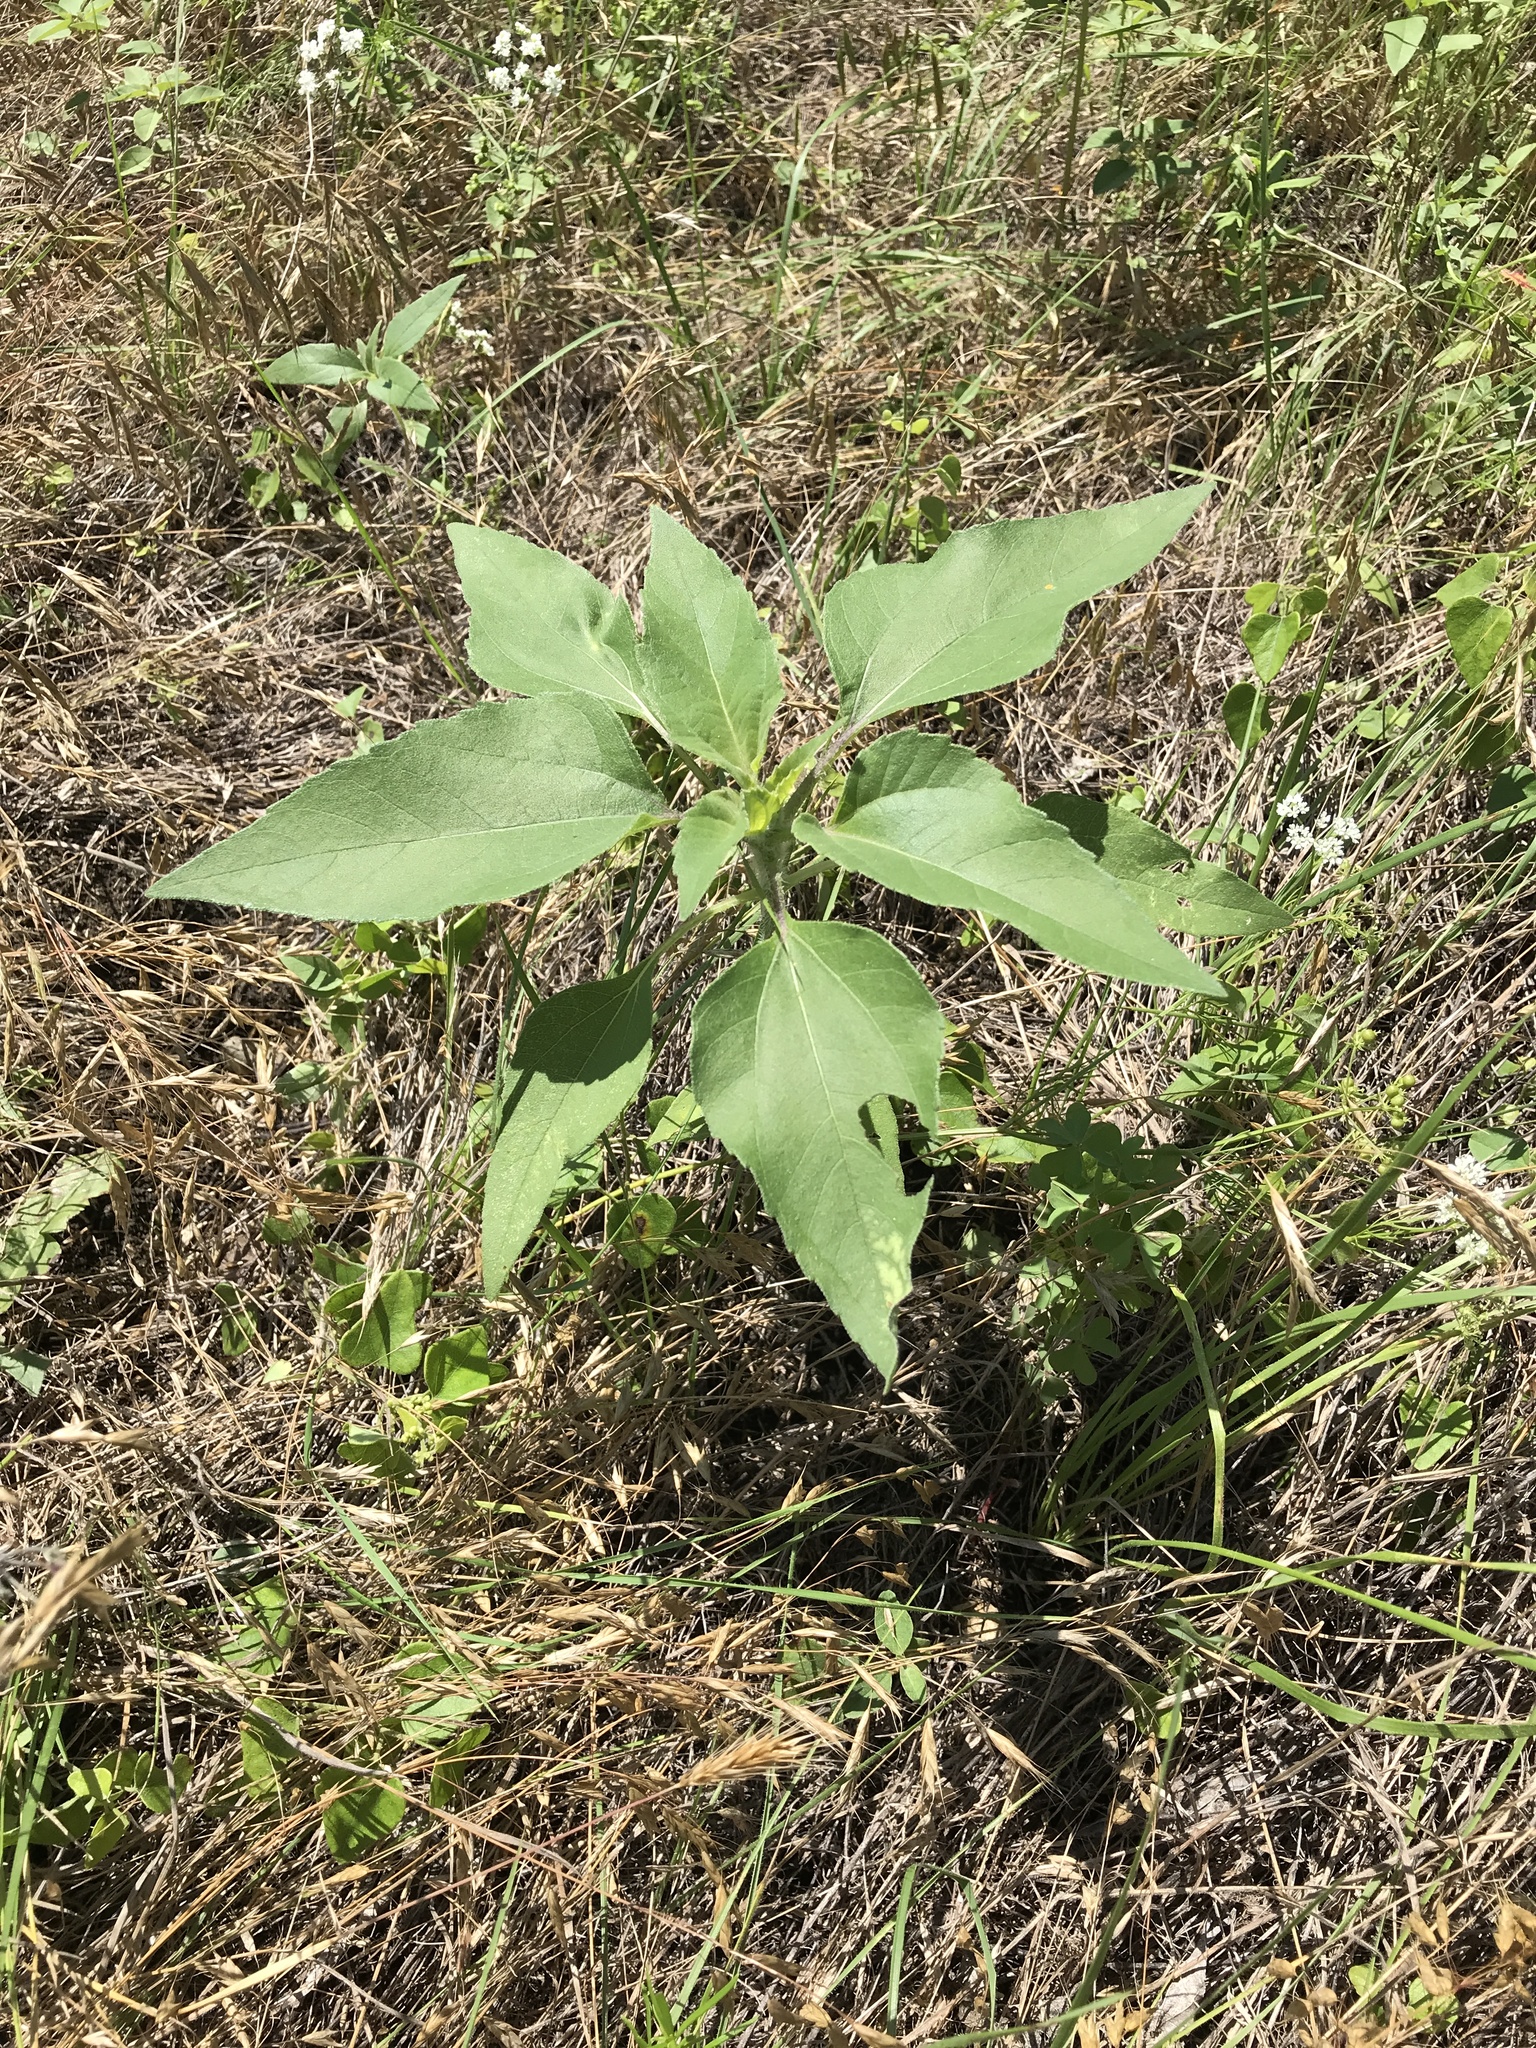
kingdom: Plantae
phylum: Tracheophyta
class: Magnoliopsida
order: Asterales
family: Asteraceae
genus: Helianthus
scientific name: Helianthus annuus
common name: Sunflower
